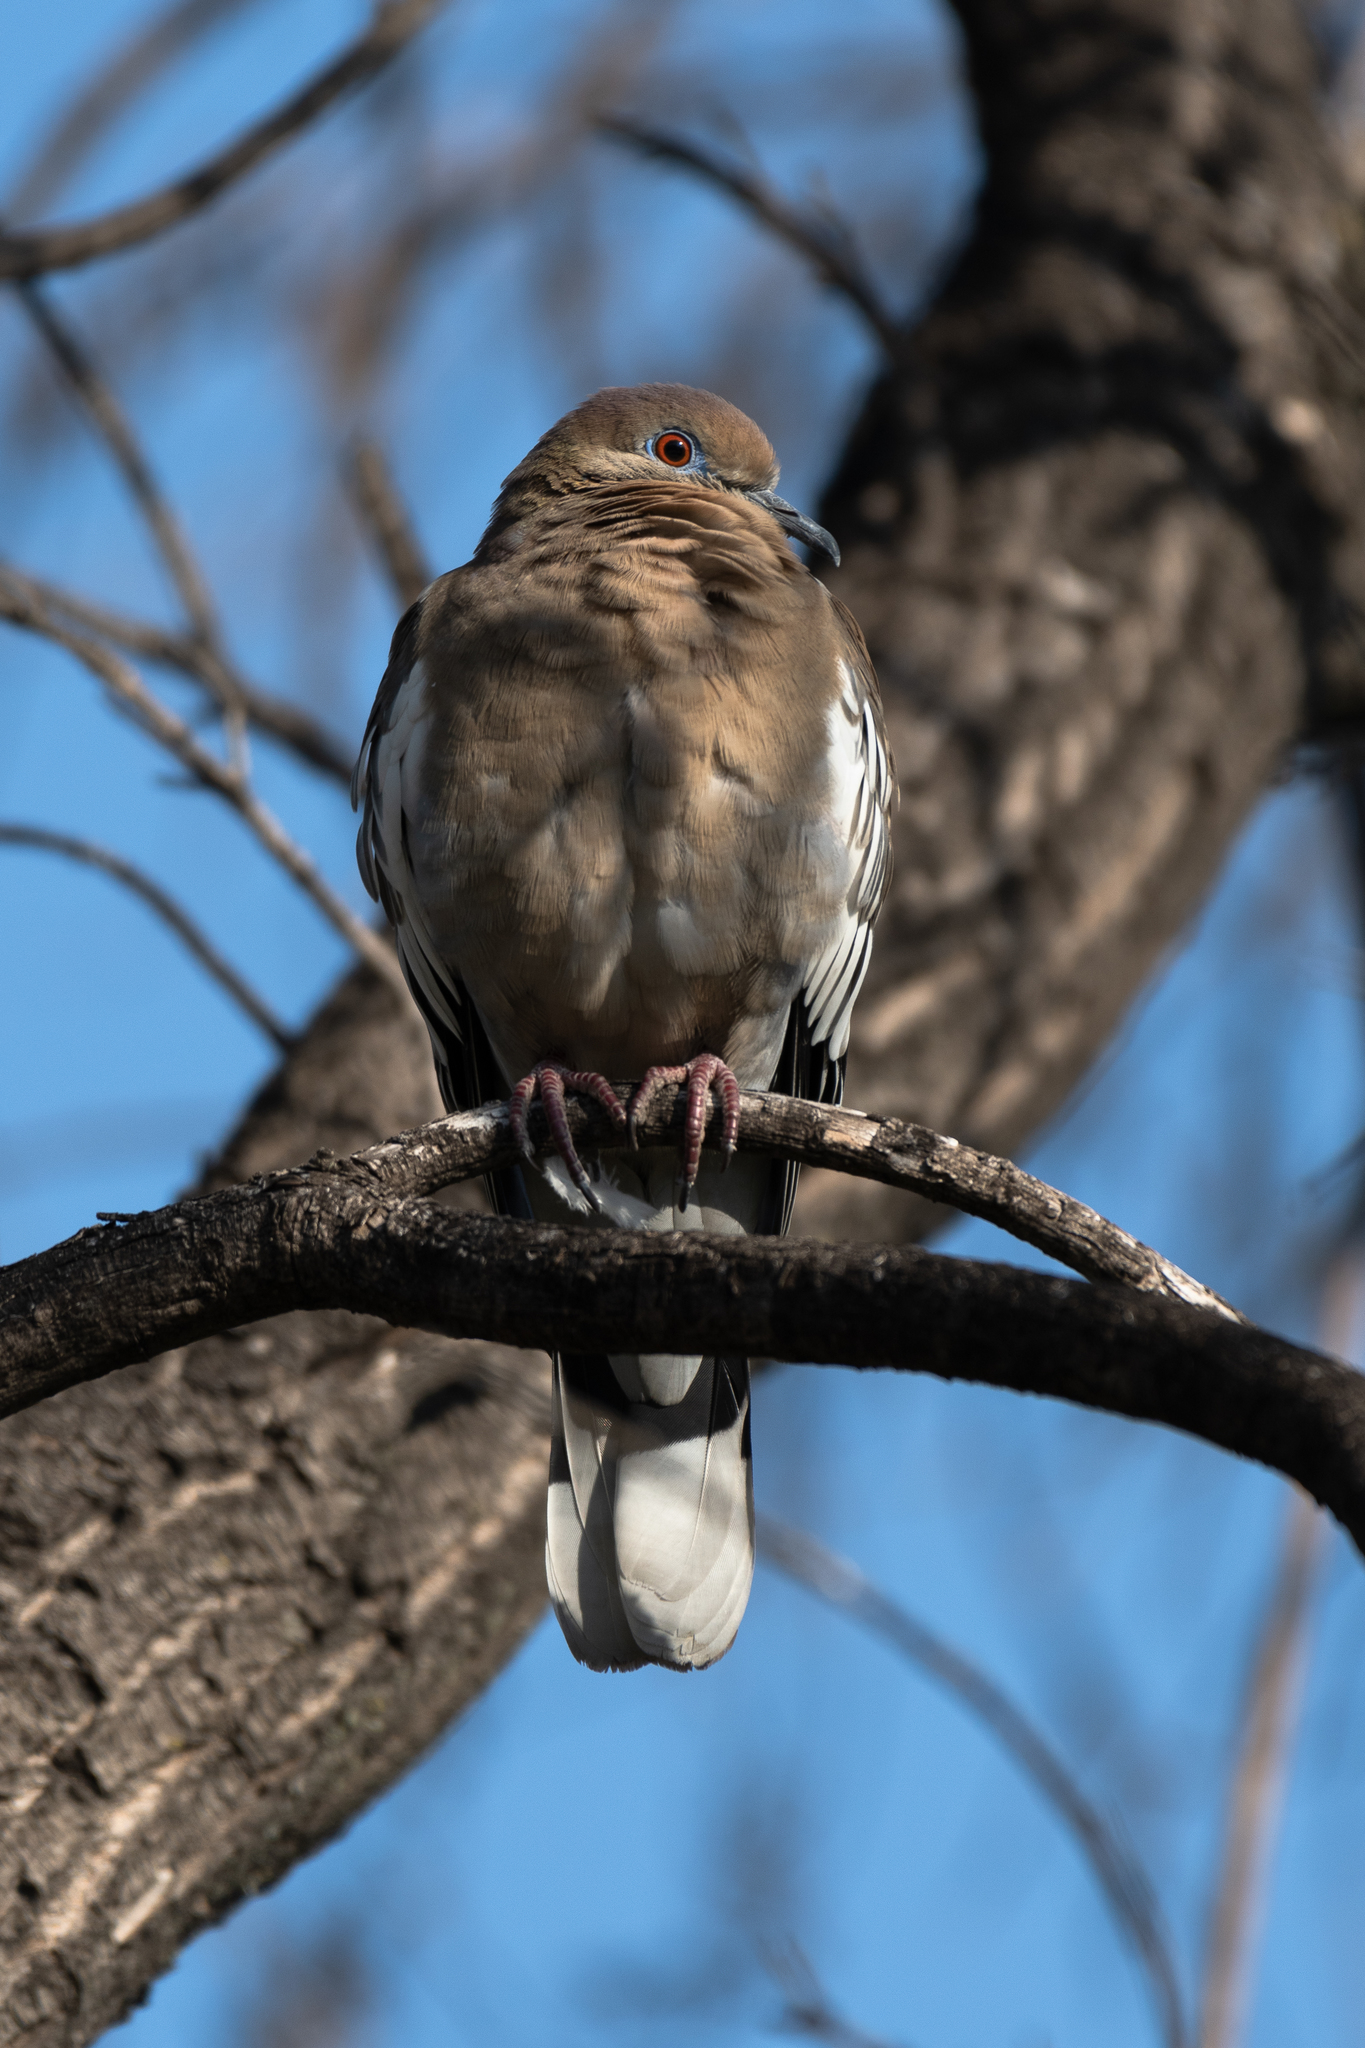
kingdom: Animalia
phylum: Chordata
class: Aves
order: Columbiformes
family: Columbidae
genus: Zenaida
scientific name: Zenaida asiatica
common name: White-winged dove
